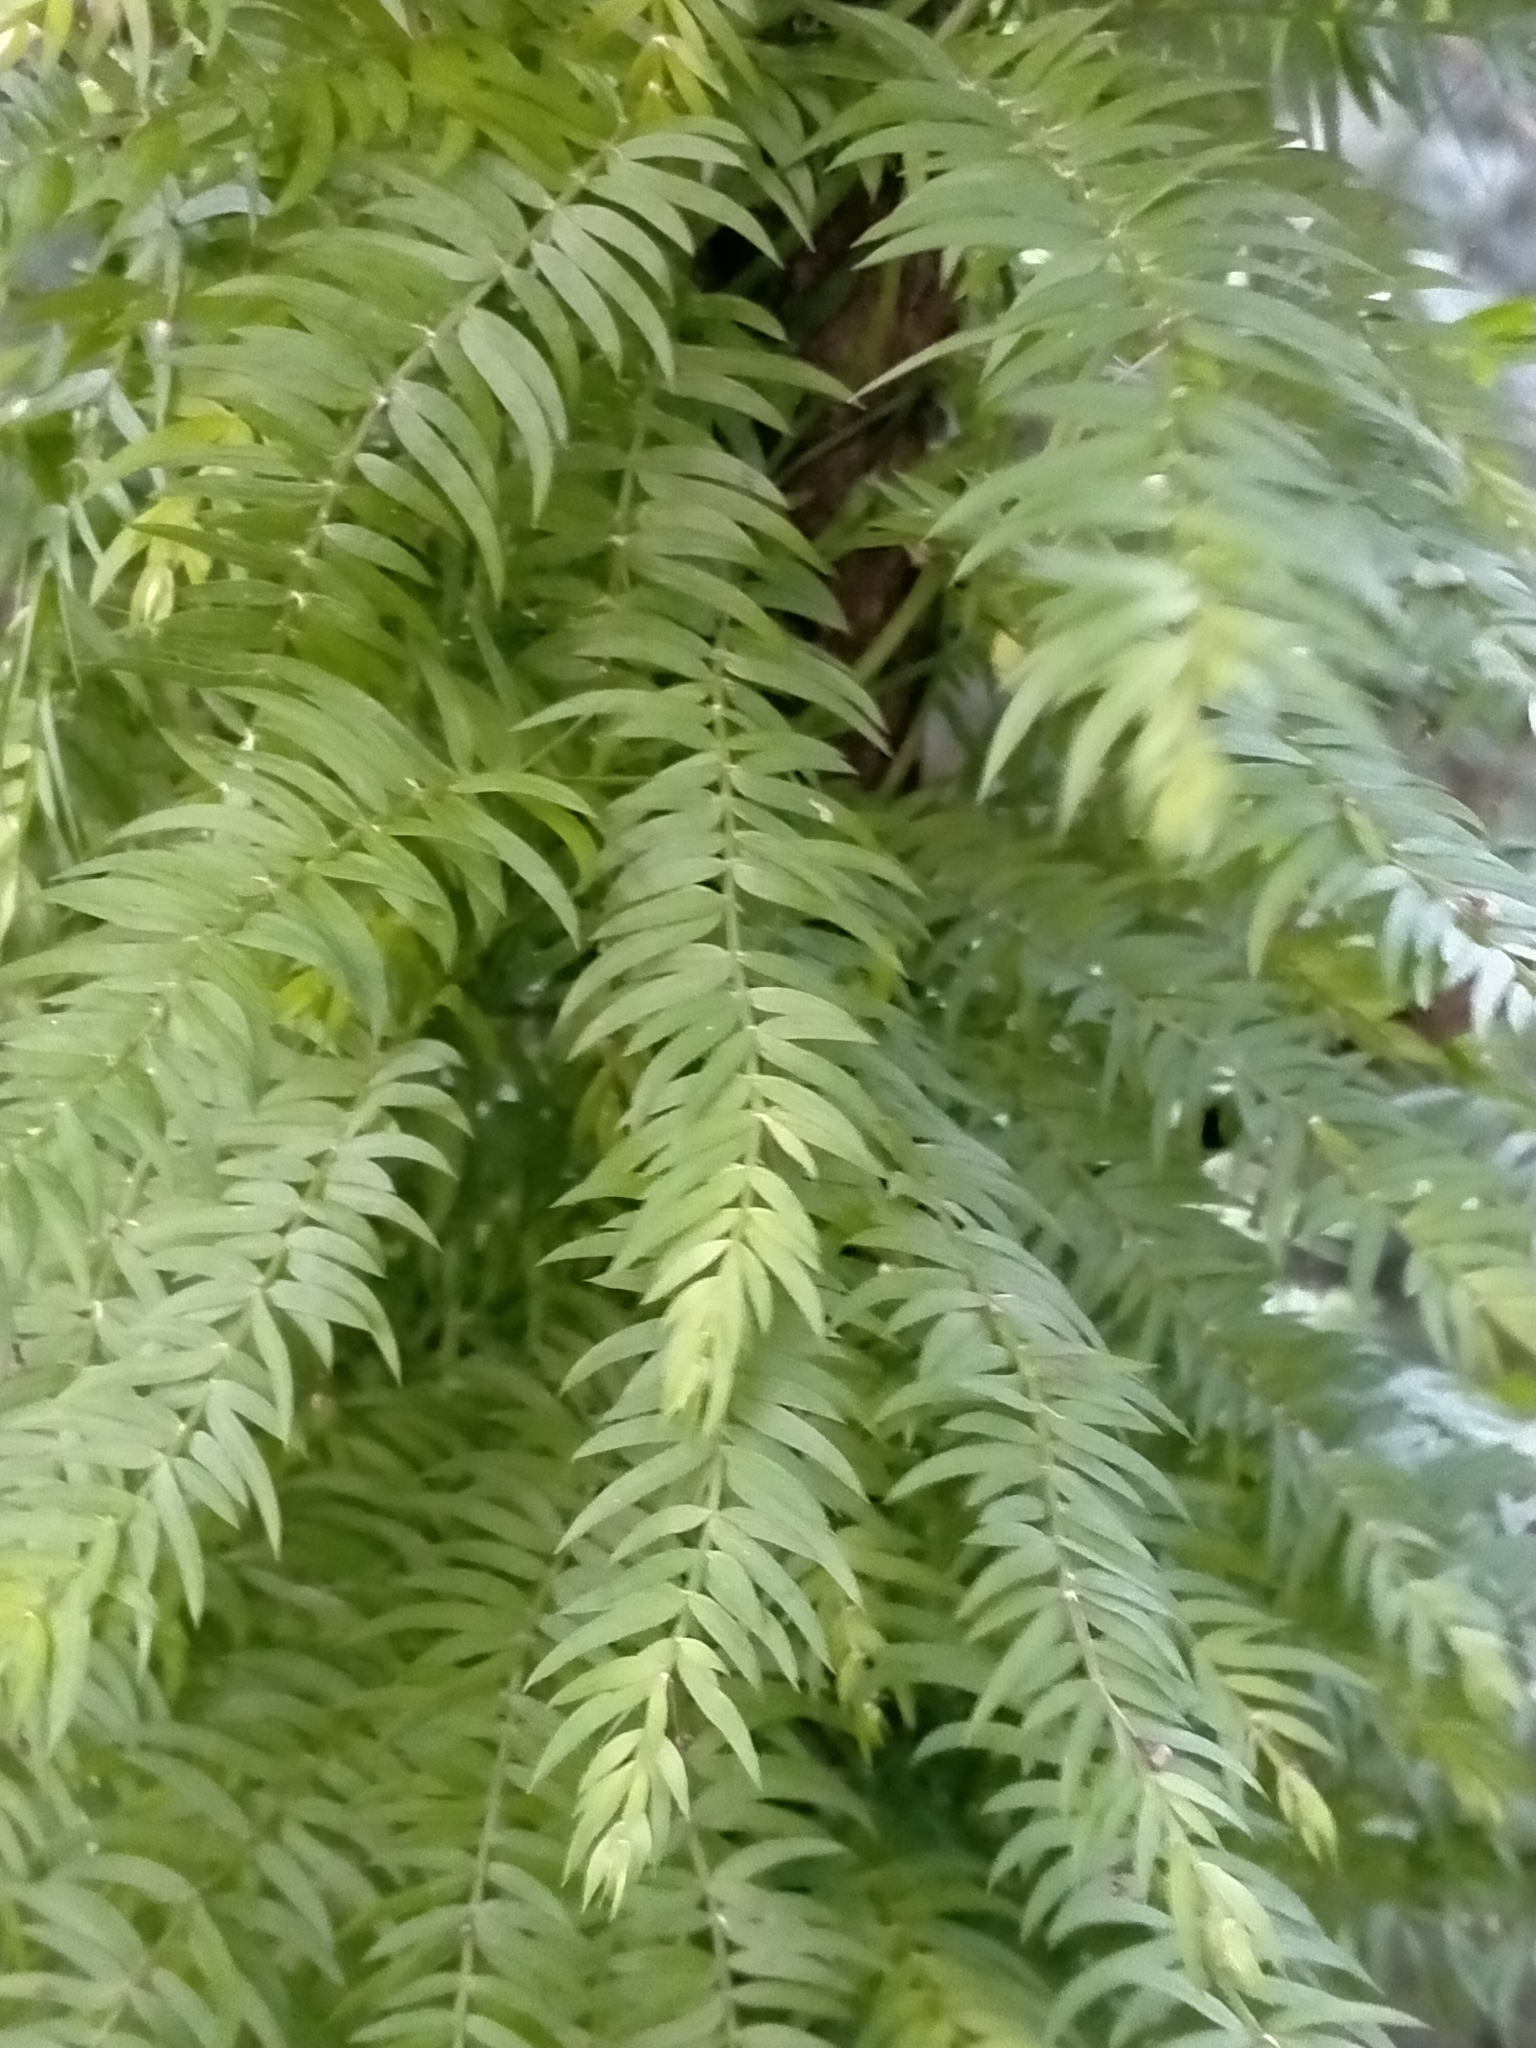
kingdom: Plantae
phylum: Tracheophyta
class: Liliopsida
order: Asparagales
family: Asparagaceae
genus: Asparagus
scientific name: Asparagus scandens
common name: Asparagus-fern
